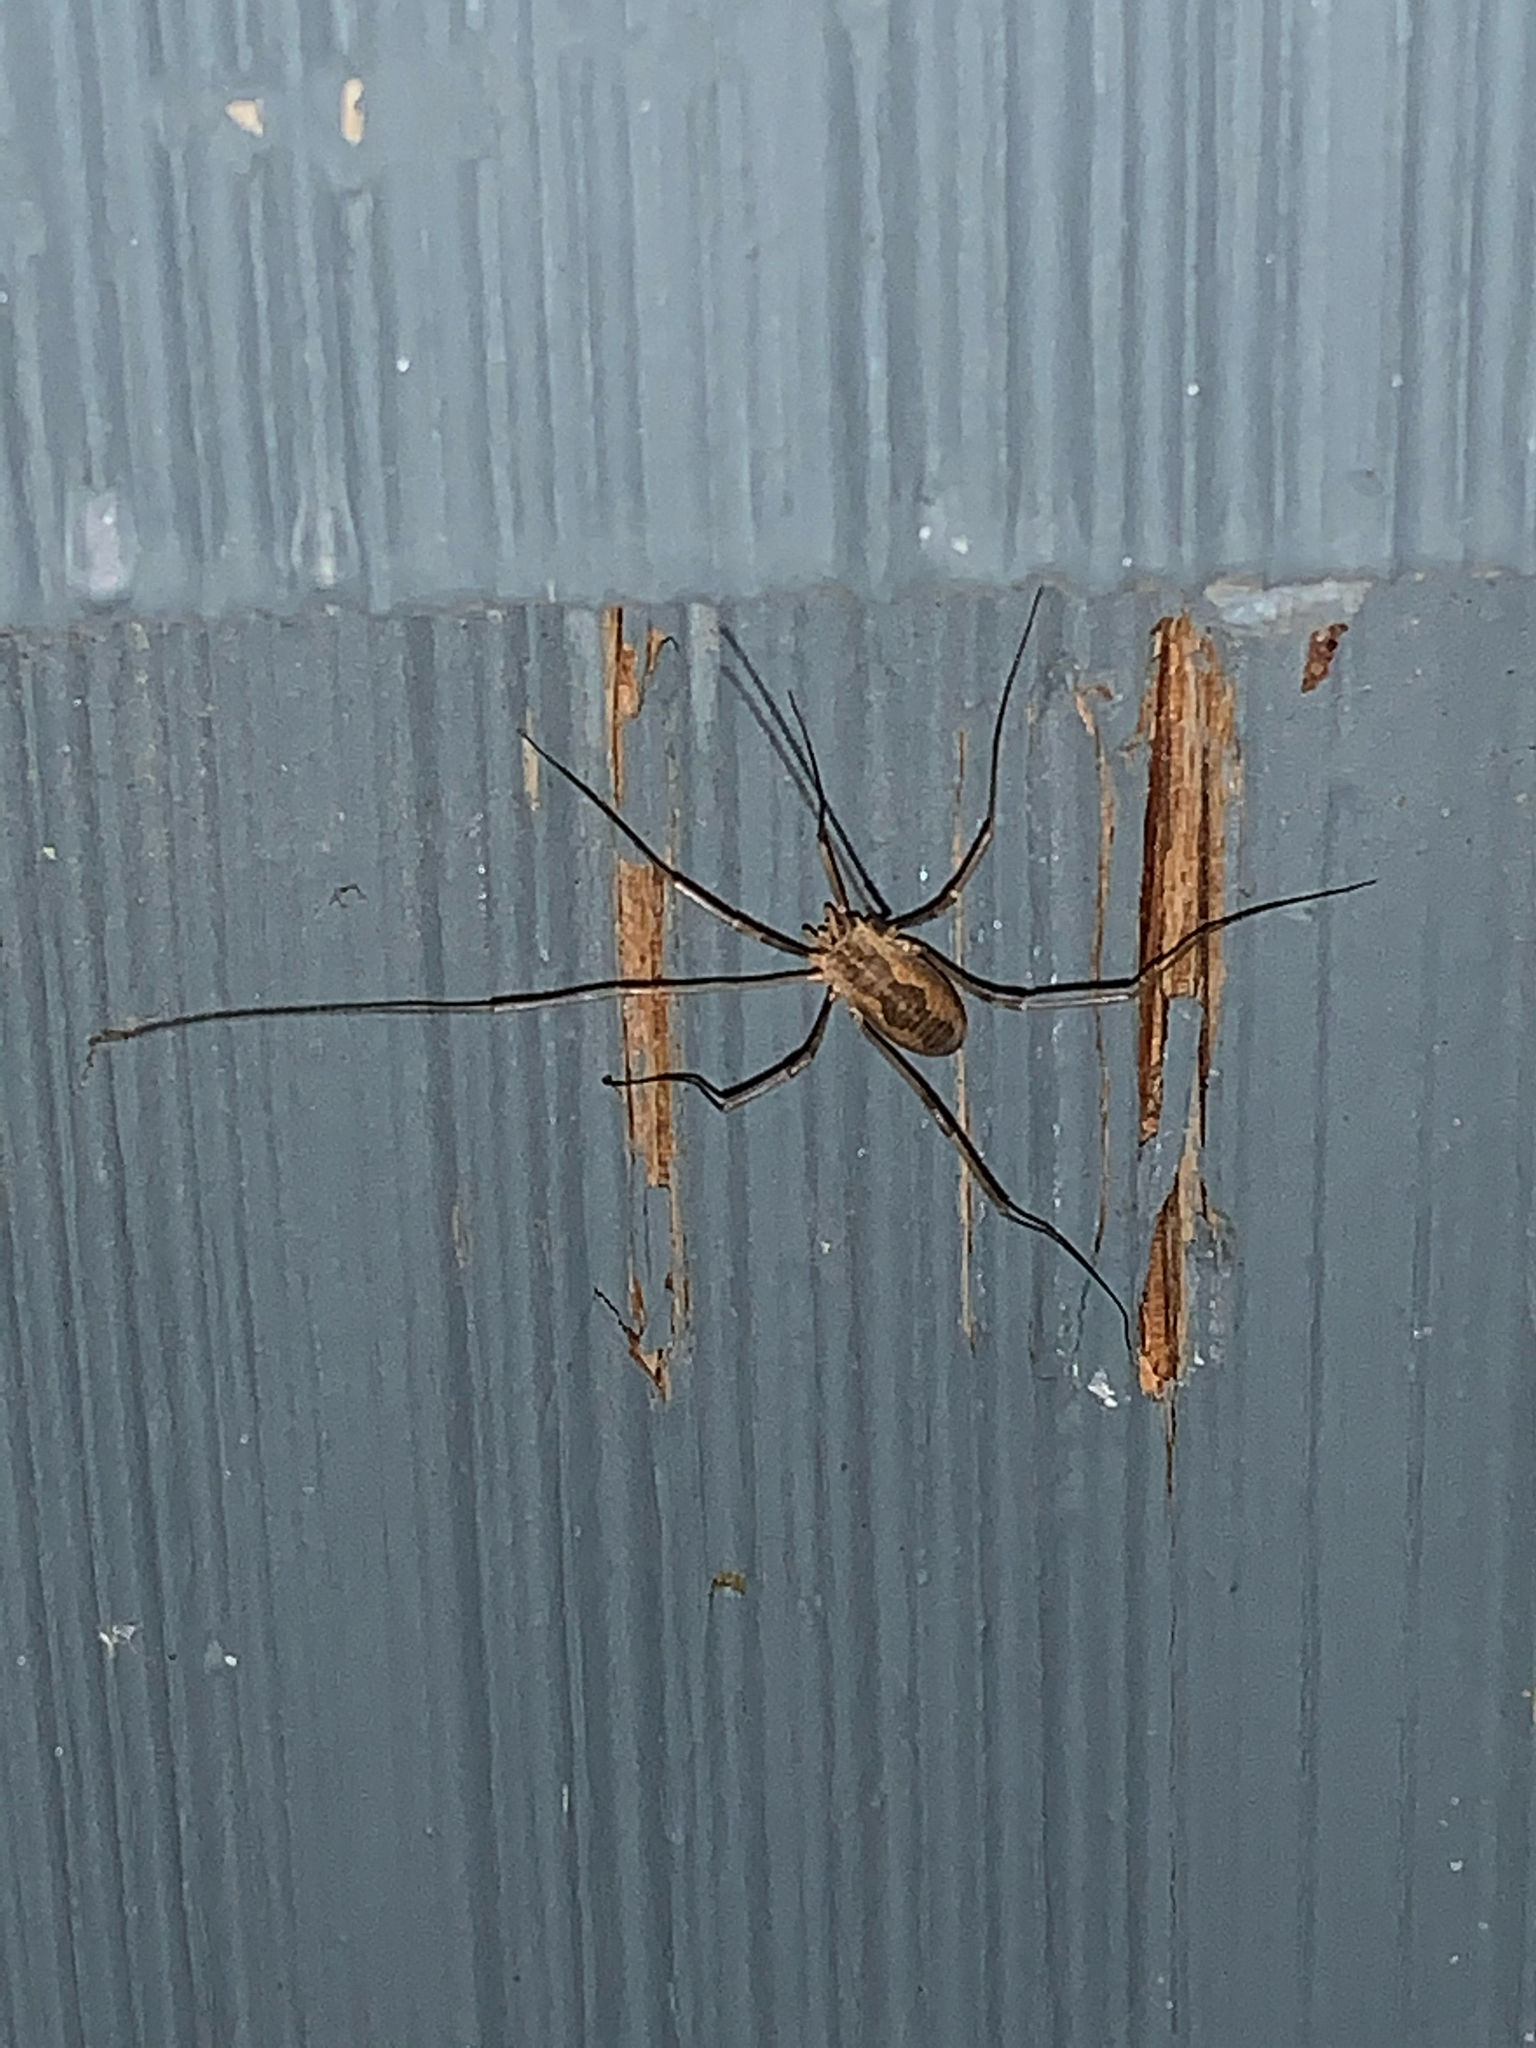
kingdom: Animalia
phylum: Arthropoda
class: Arachnida
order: Opiliones
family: Phalangiidae
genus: Phalangium
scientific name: Phalangium opilio
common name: Daddy longleg
